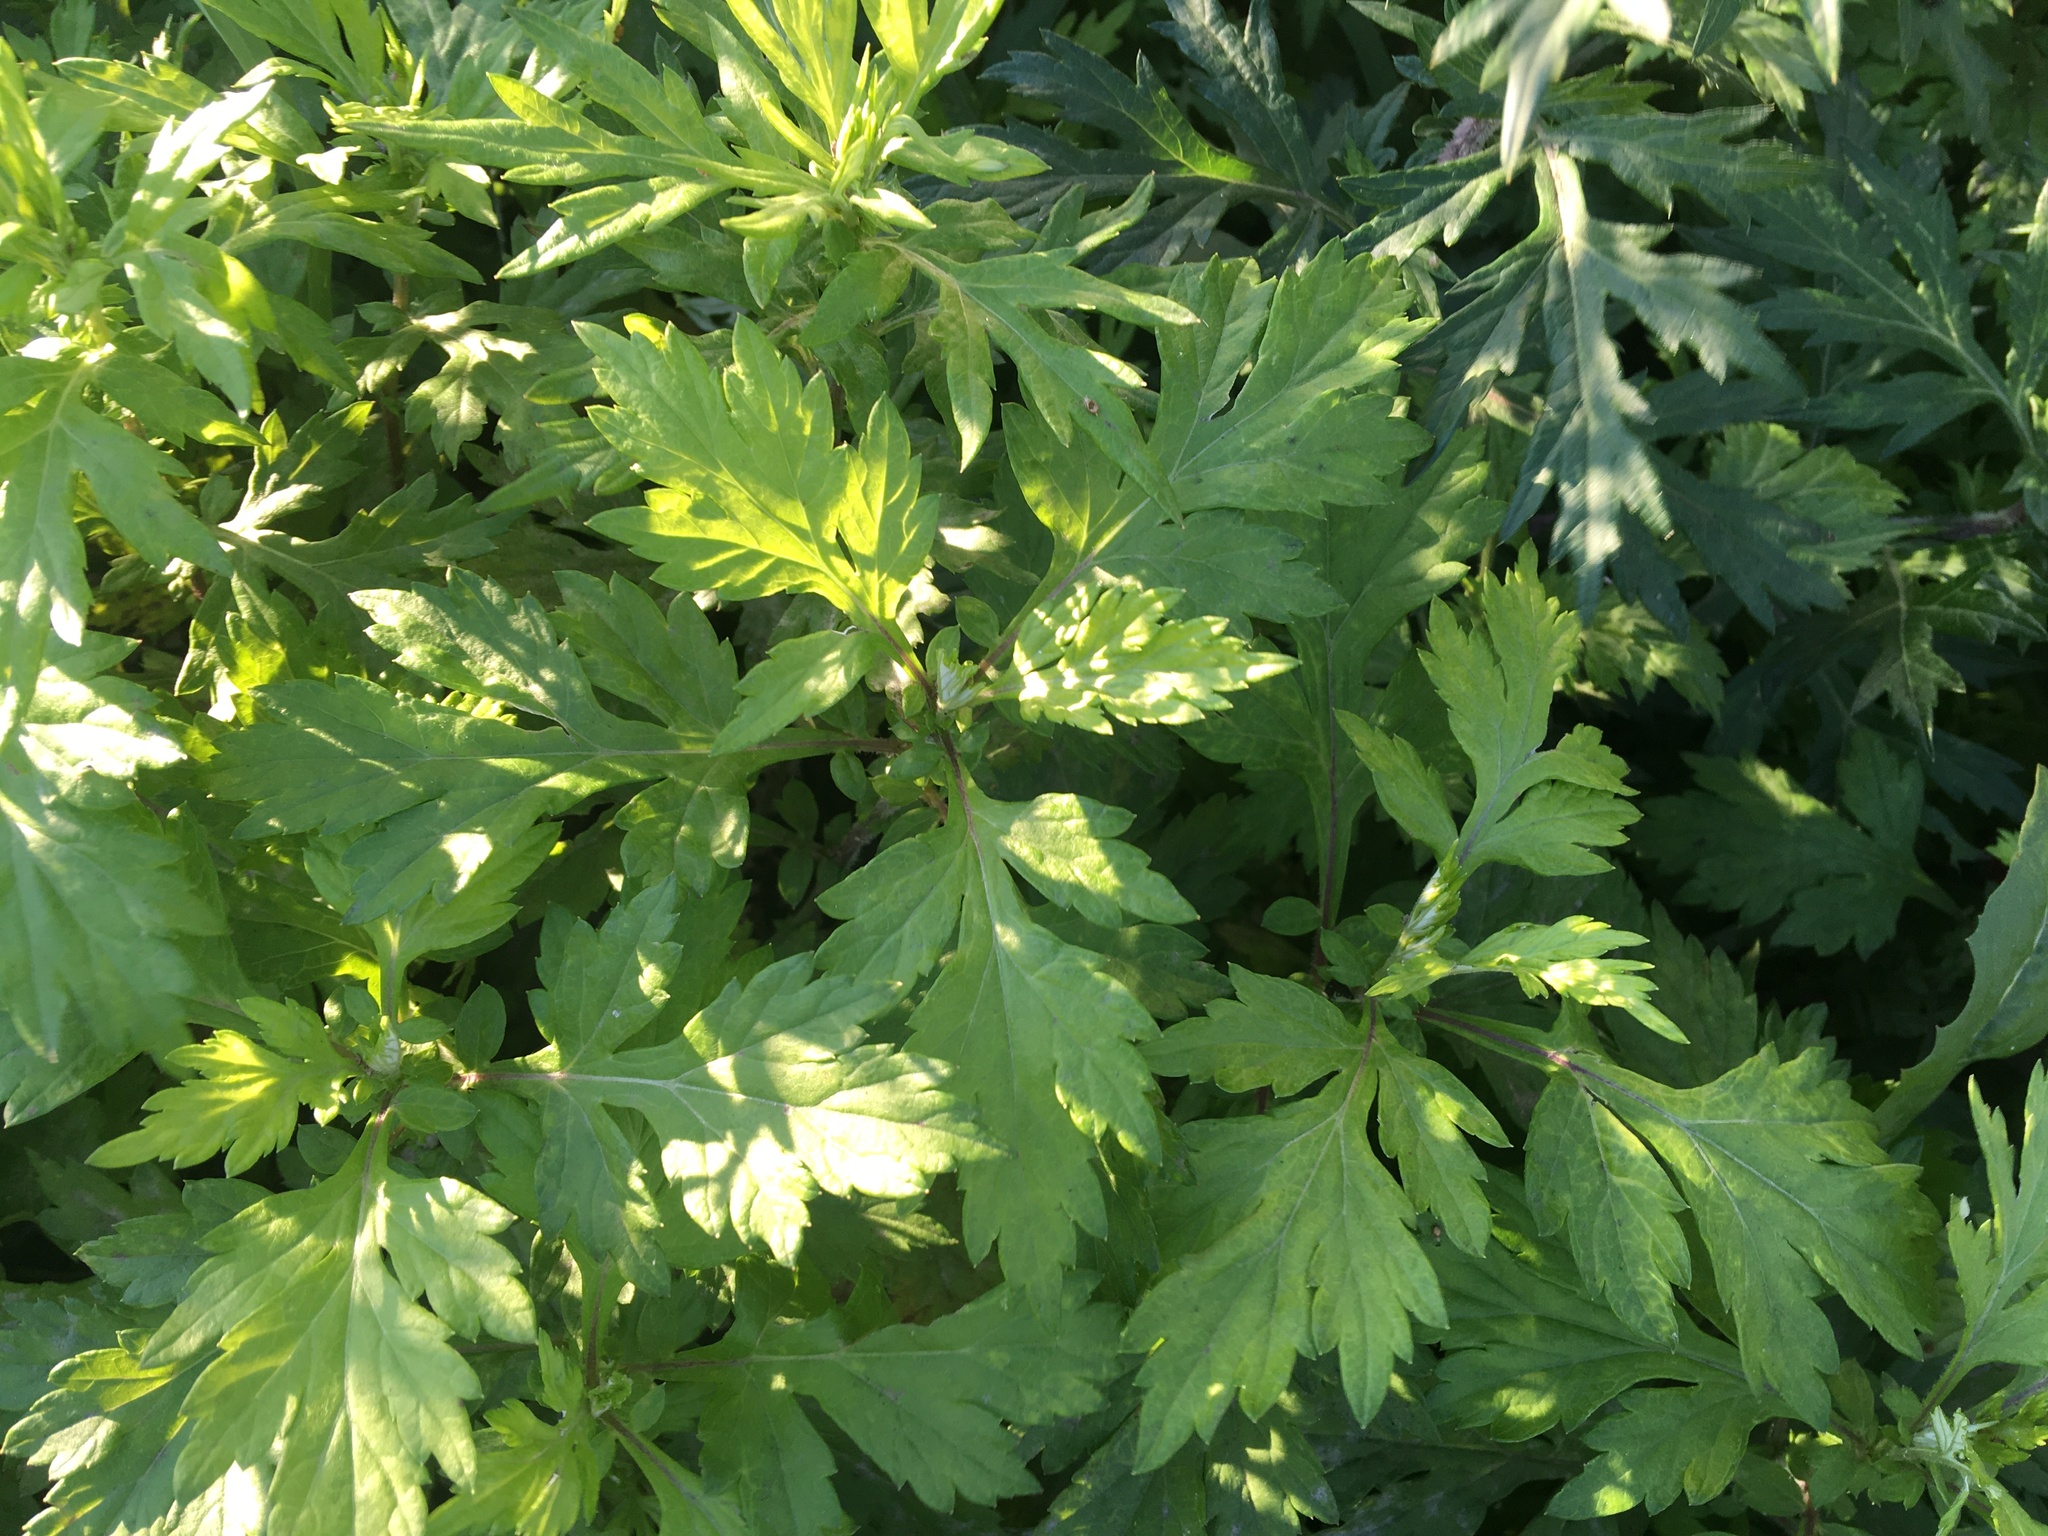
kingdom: Plantae
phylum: Tracheophyta
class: Magnoliopsida
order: Asterales
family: Asteraceae
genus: Artemisia
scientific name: Artemisia vulgaris
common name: Mugwort
